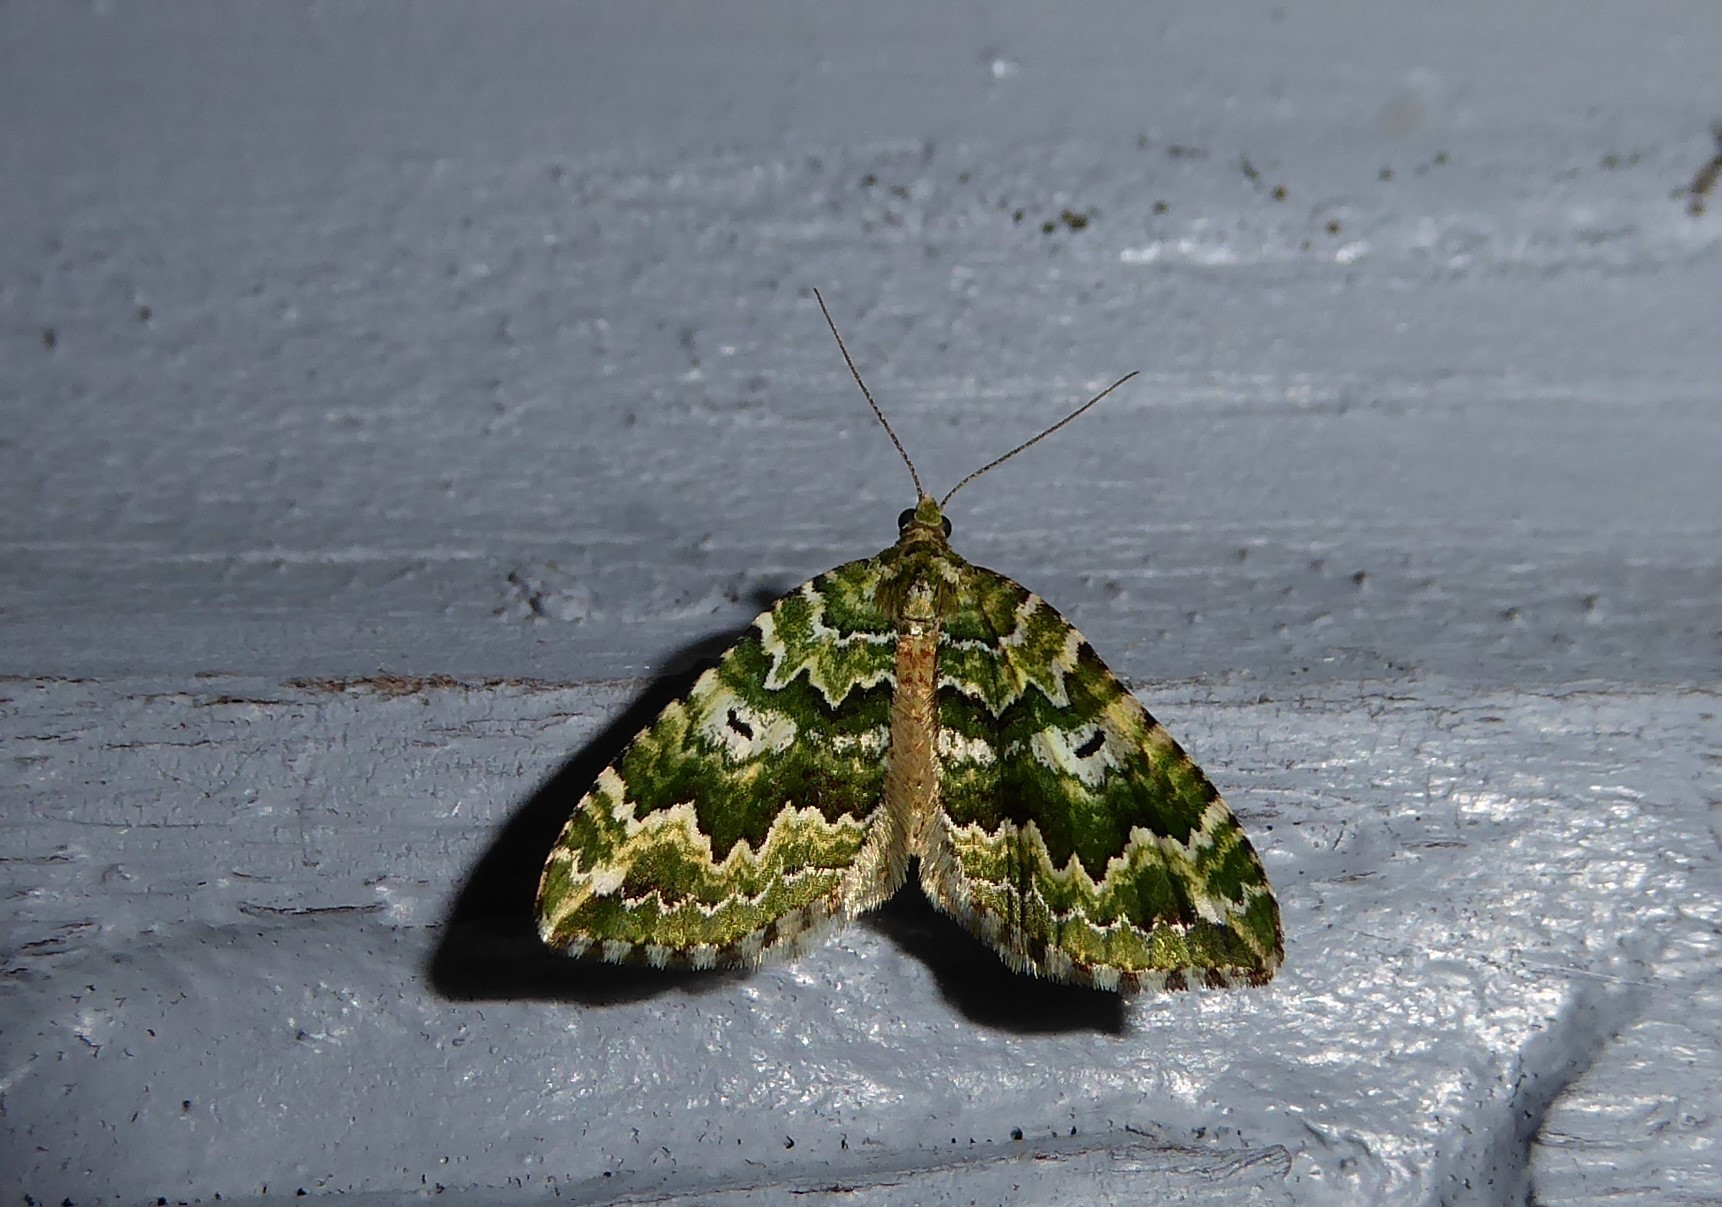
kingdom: Animalia
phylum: Arthropoda
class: Insecta
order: Lepidoptera
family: Geometridae
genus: Asaphodes
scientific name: Asaphodes beata
